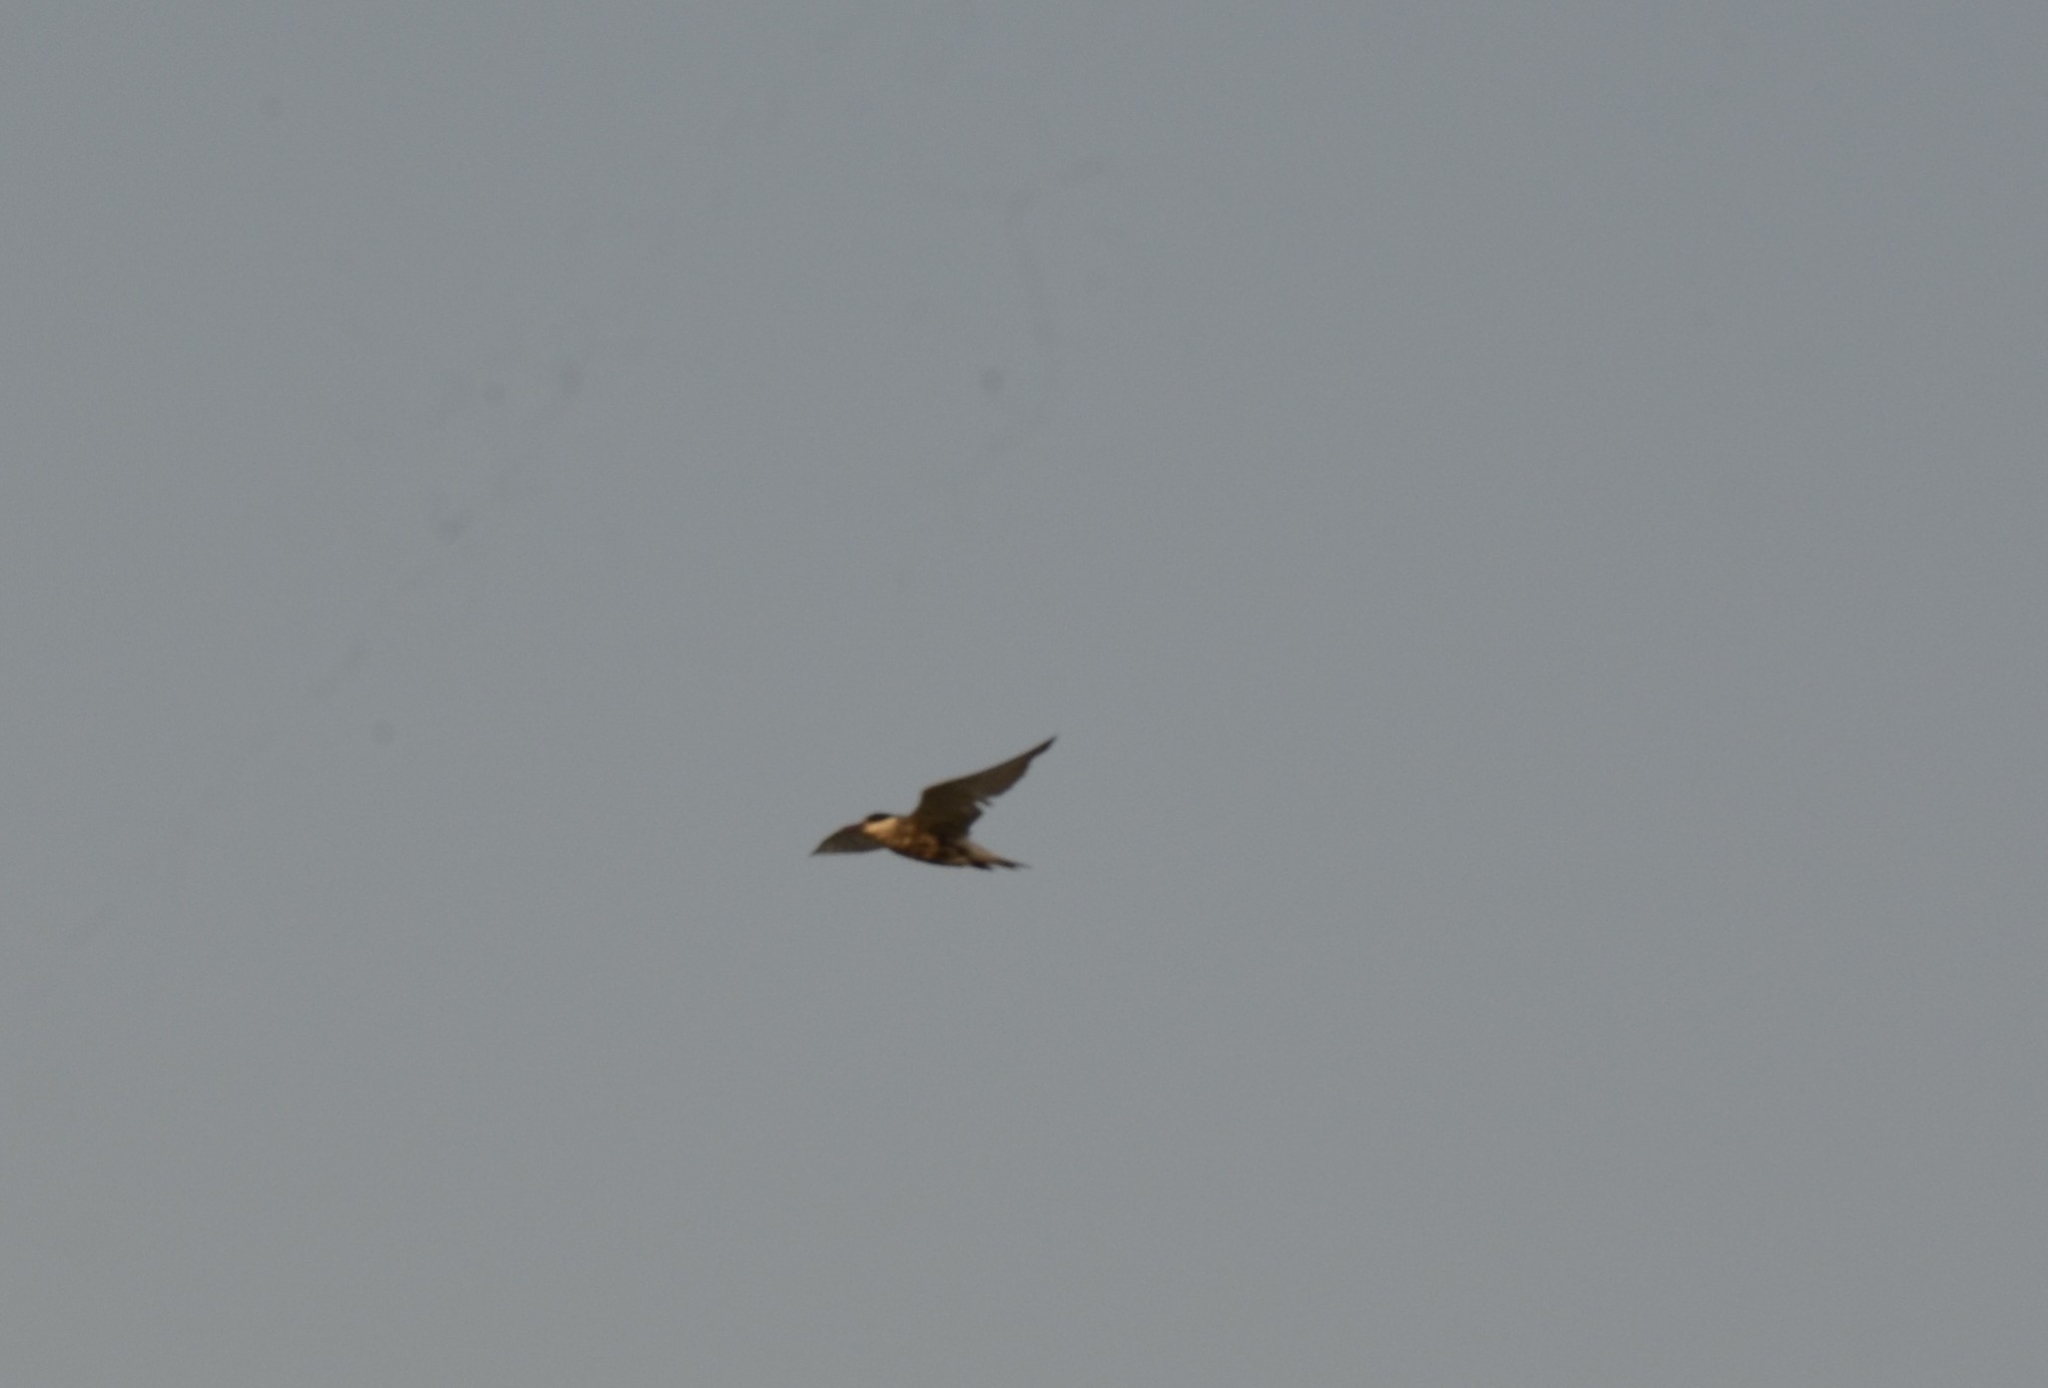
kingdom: Animalia
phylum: Chordata
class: Aves
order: Charadriiformes
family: Laridae
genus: Chlidonias
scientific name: Chlidonias hybrida
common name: Whiskered tern
